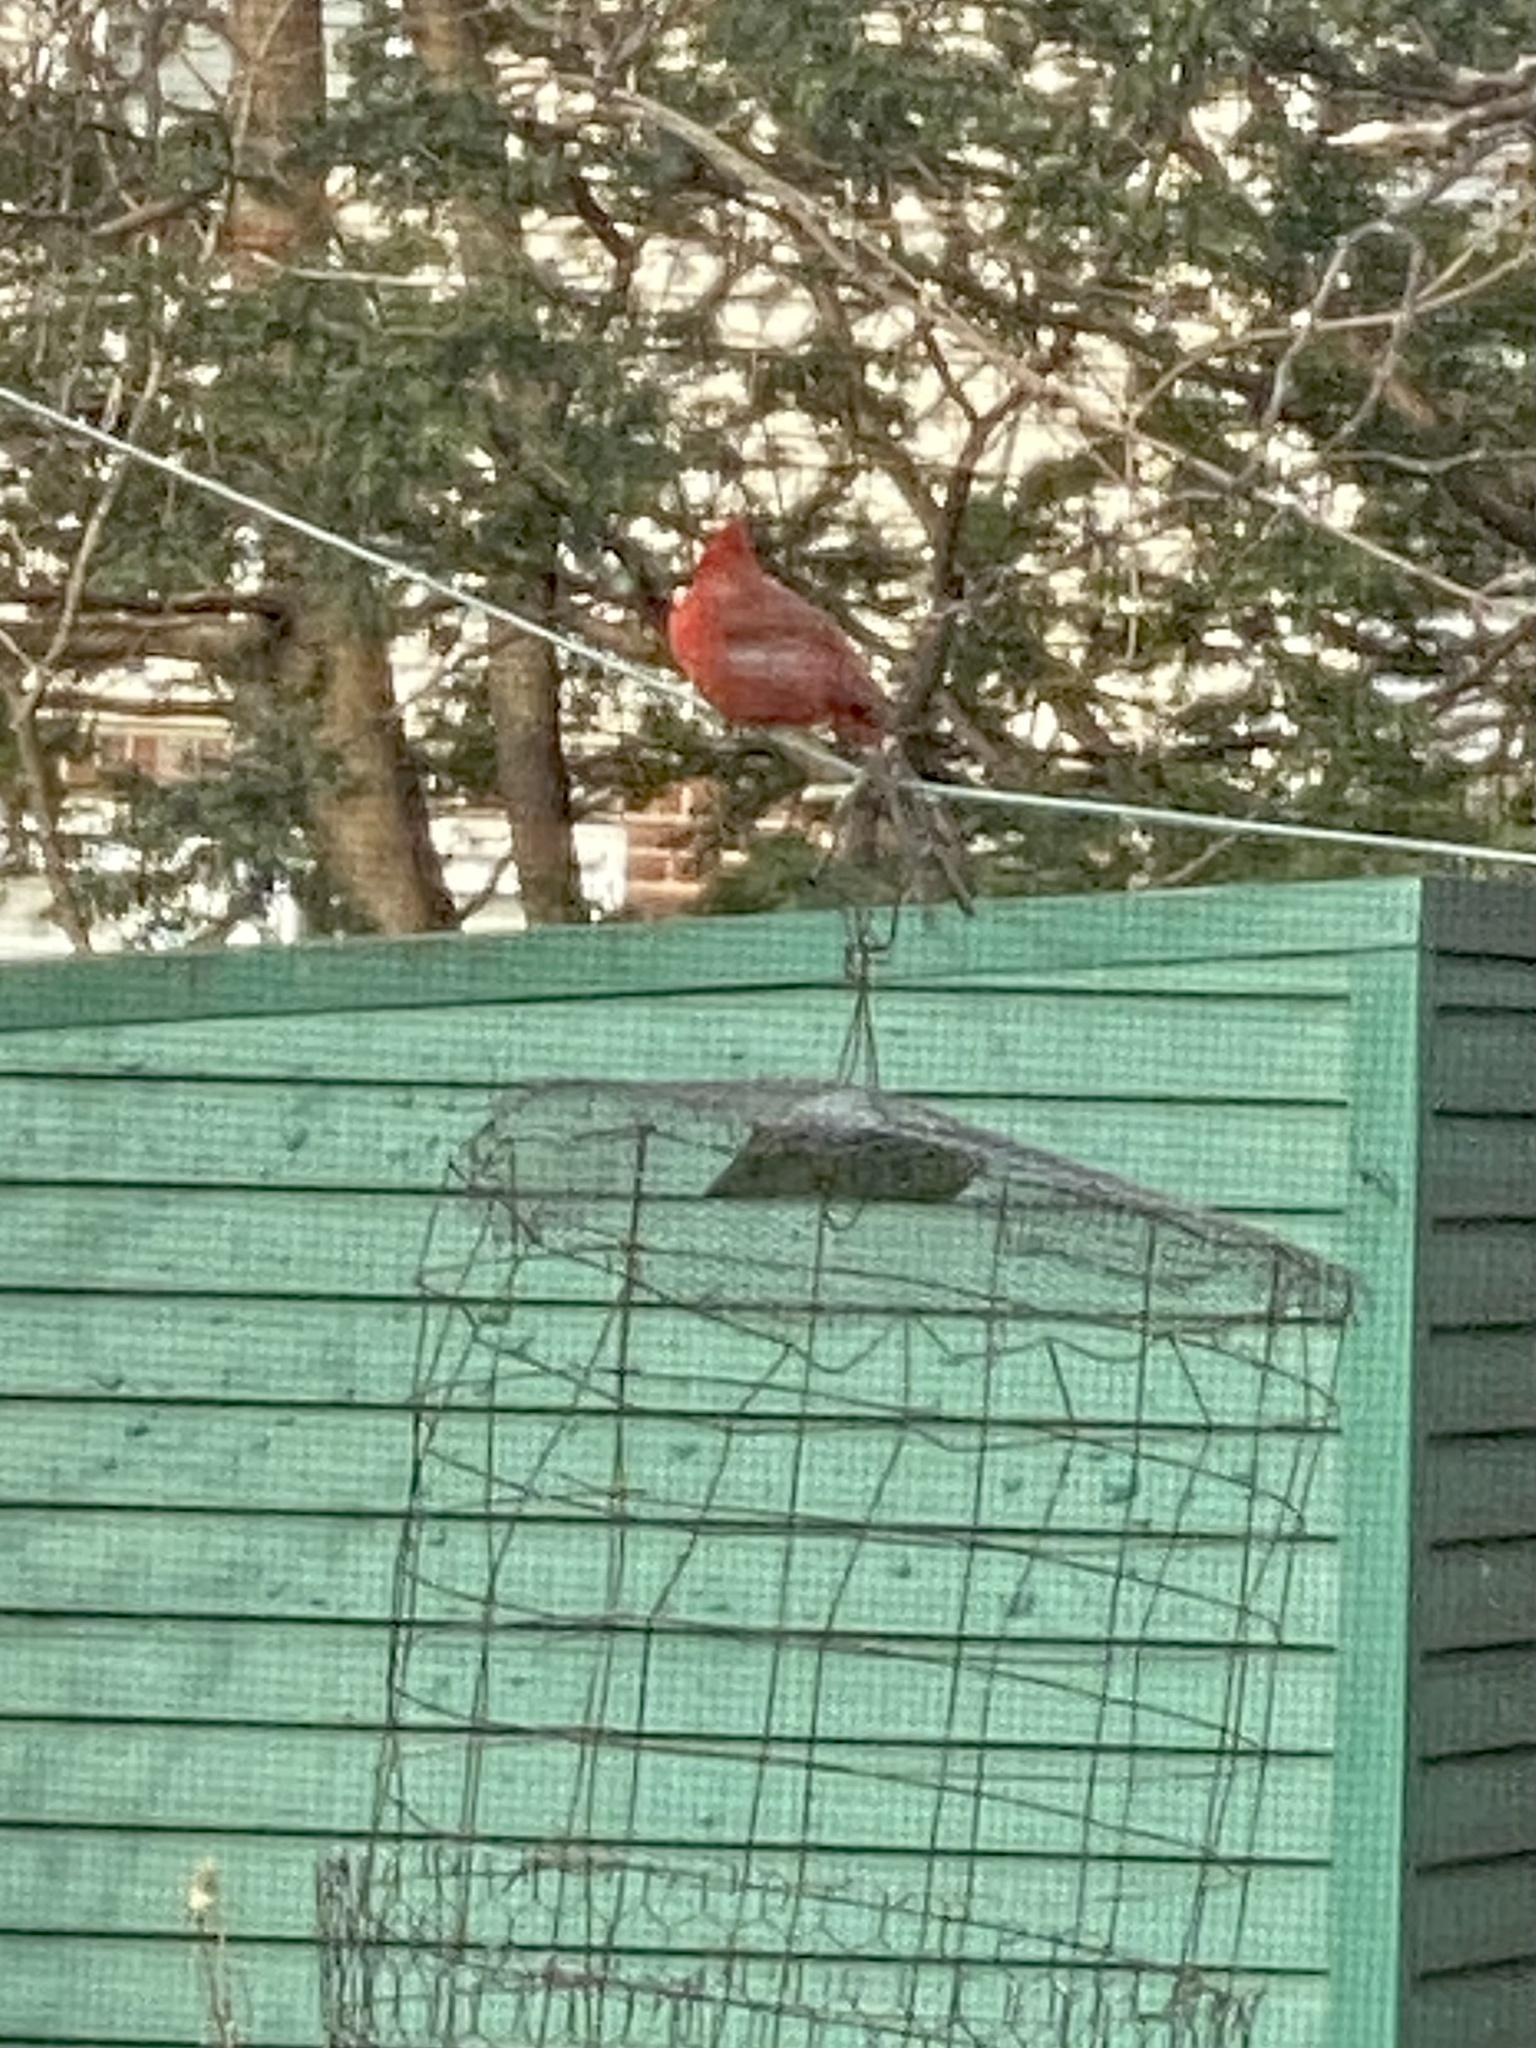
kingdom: Animalia
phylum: Chordata
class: Aves
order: Passeriformes
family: Cardinalidae
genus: Cardinalis
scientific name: Cardinalis cardinalis
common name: Northern cardinal
